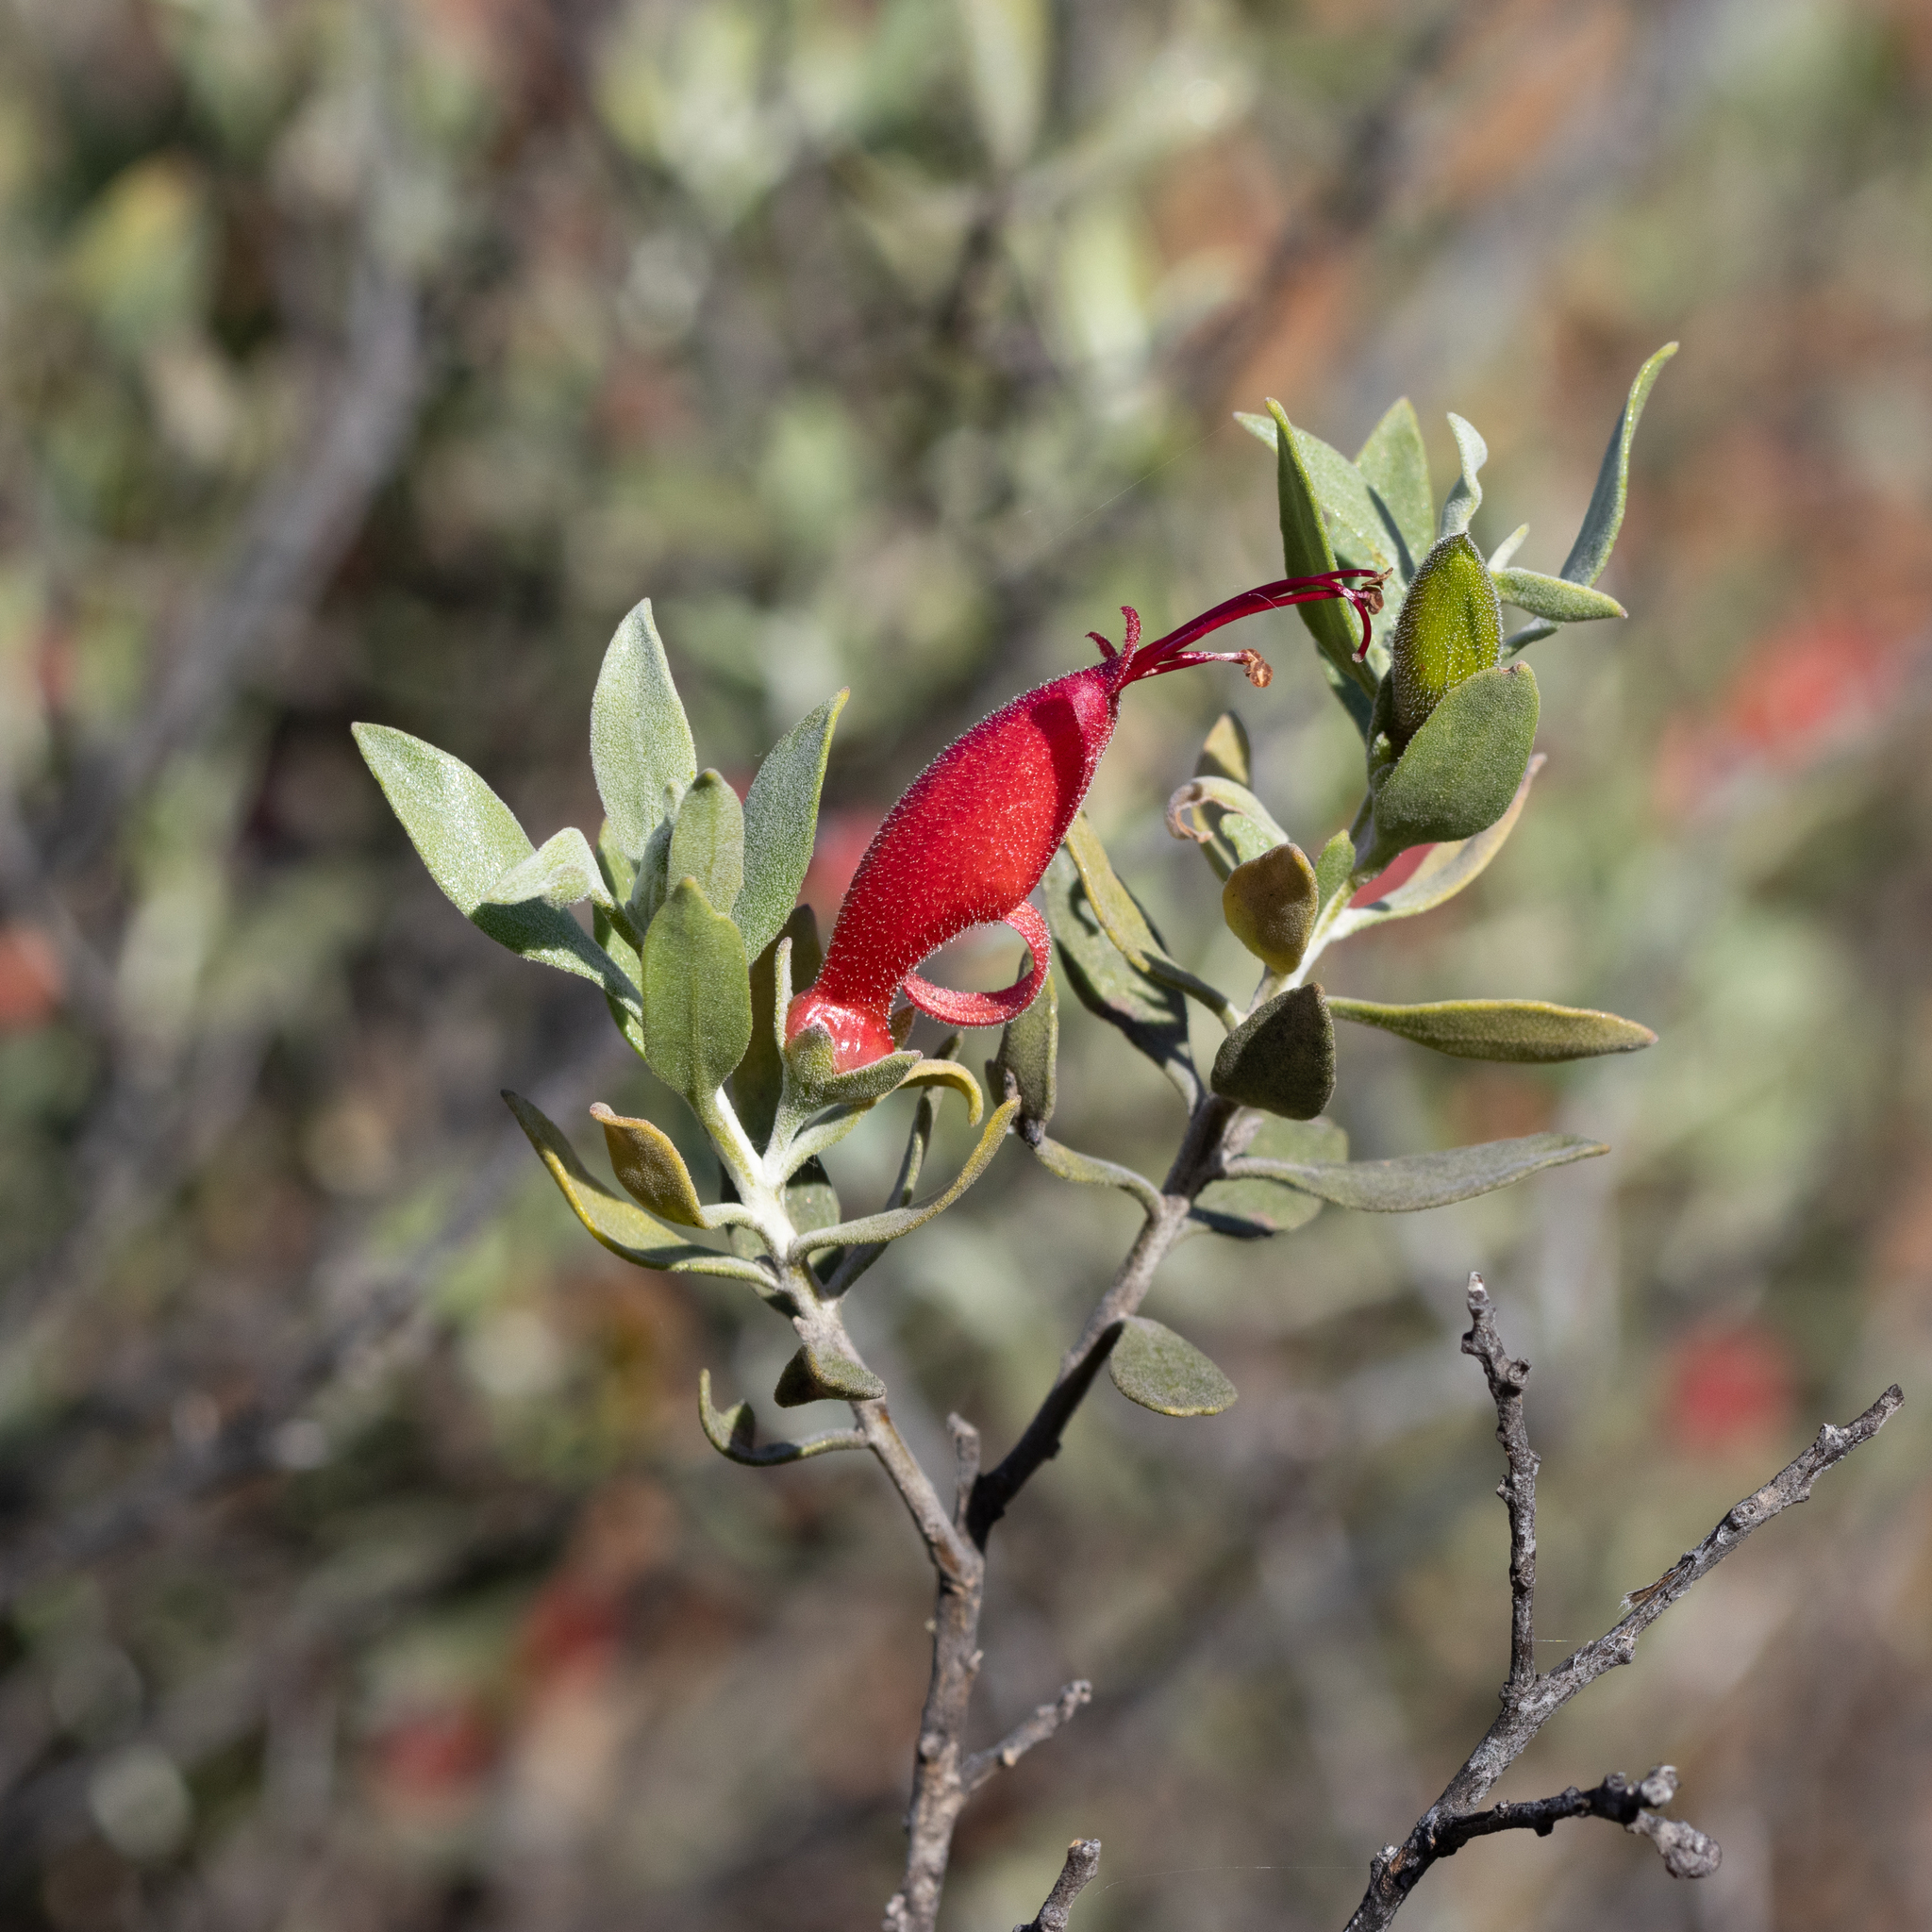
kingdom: Plantae
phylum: Tracheophyta
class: Magnoliopsida
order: Lamiales
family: Scrophulariaceae
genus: Eremophila
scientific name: Eremophila glabra
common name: Black-fuchsia
